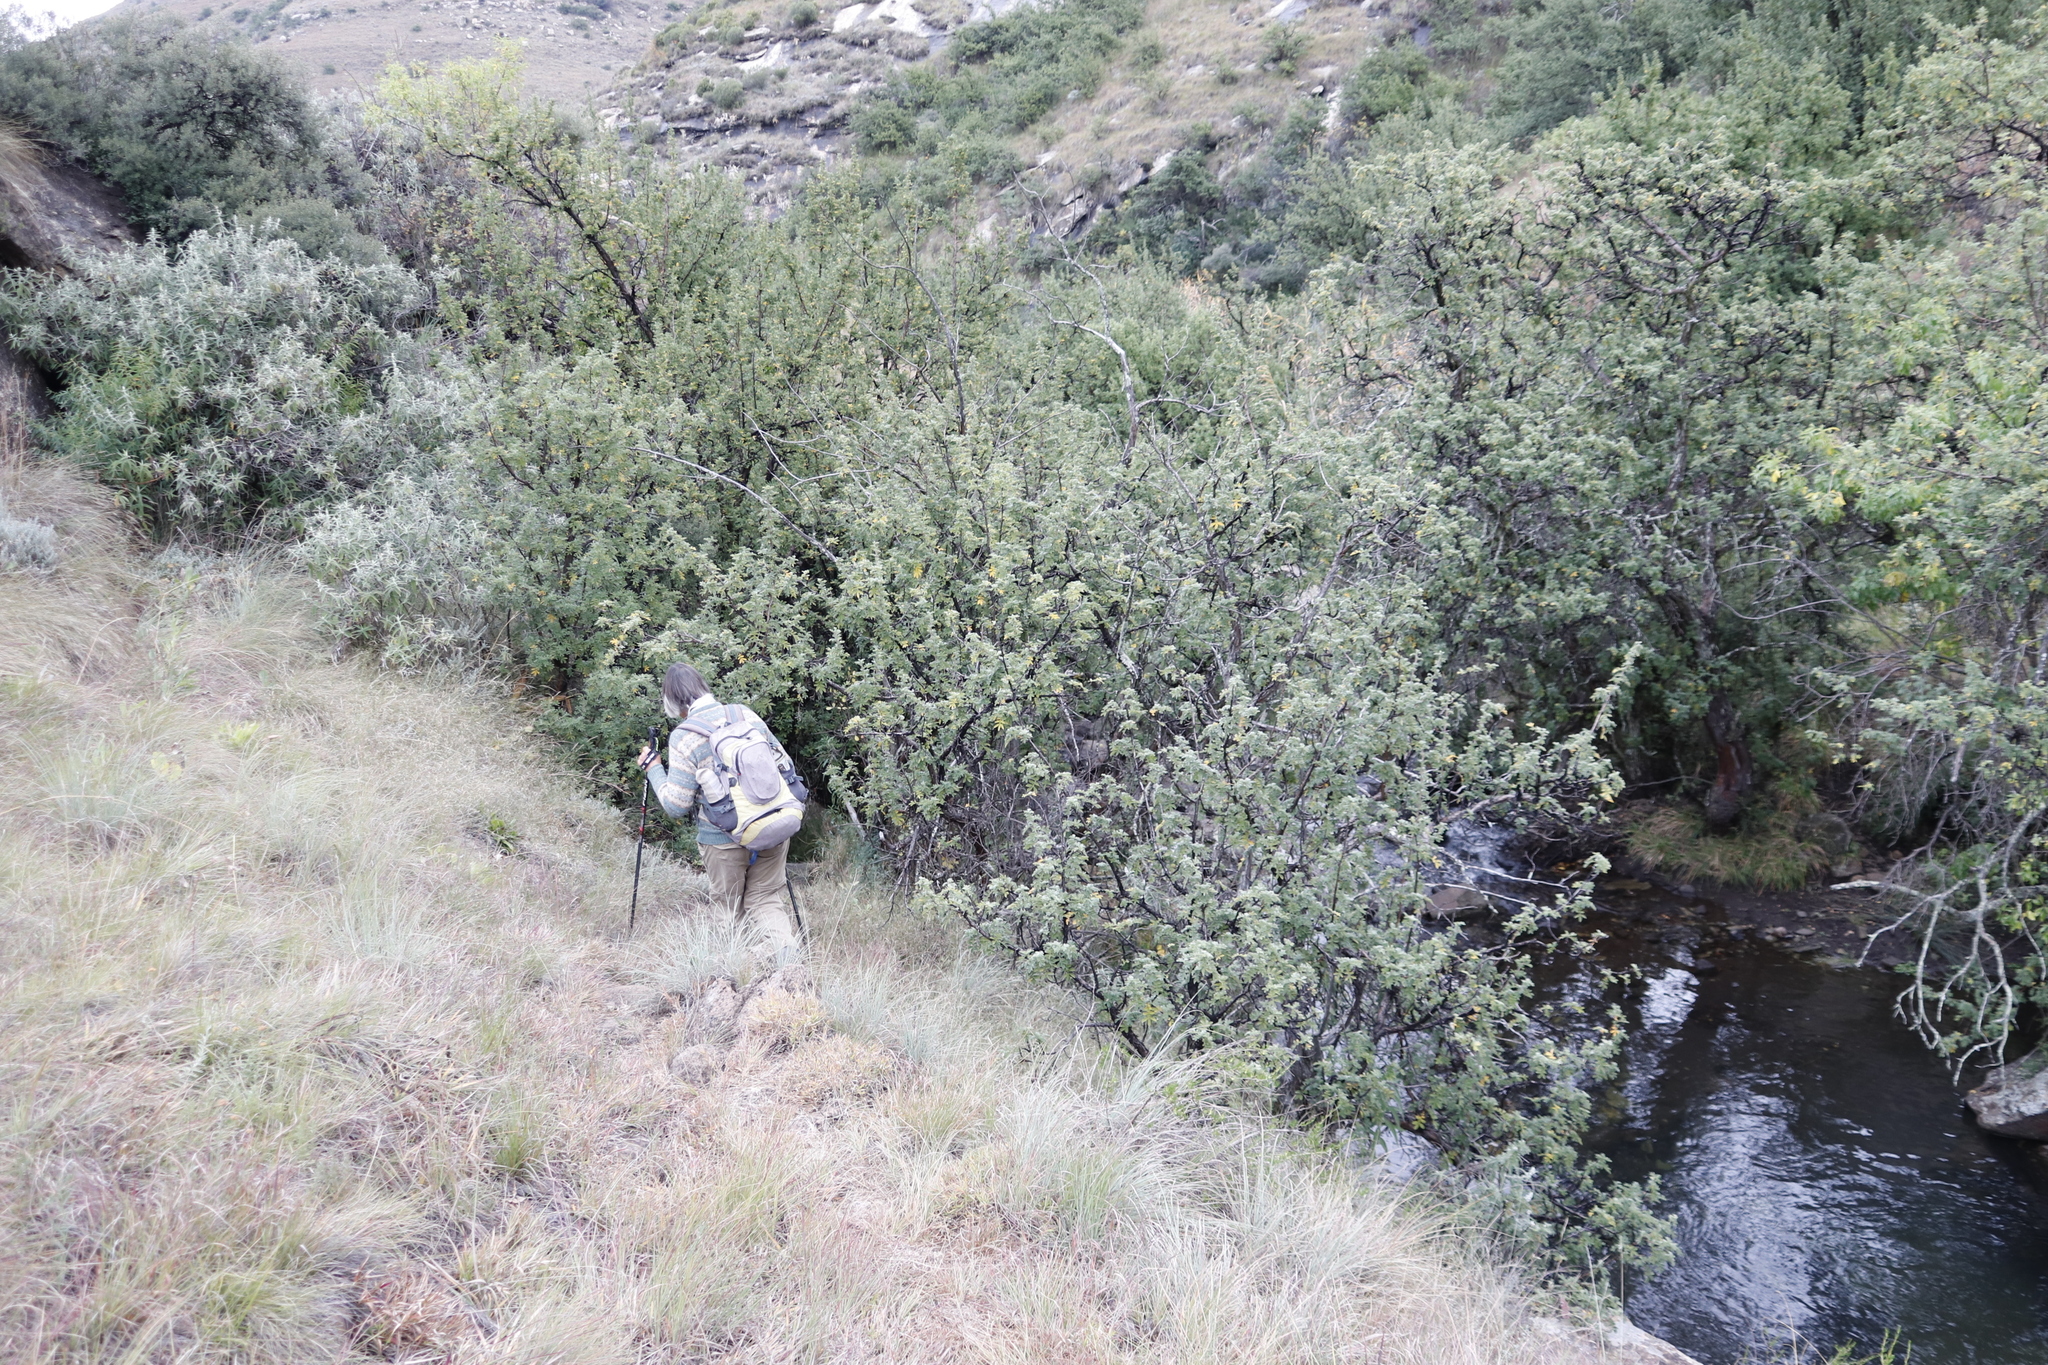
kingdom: Plantae
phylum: Tracheophyta
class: Magnoliopsida
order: Rosales
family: Rosaceae
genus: Leucosidea
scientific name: Leucosidea sericea
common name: Oldwood
